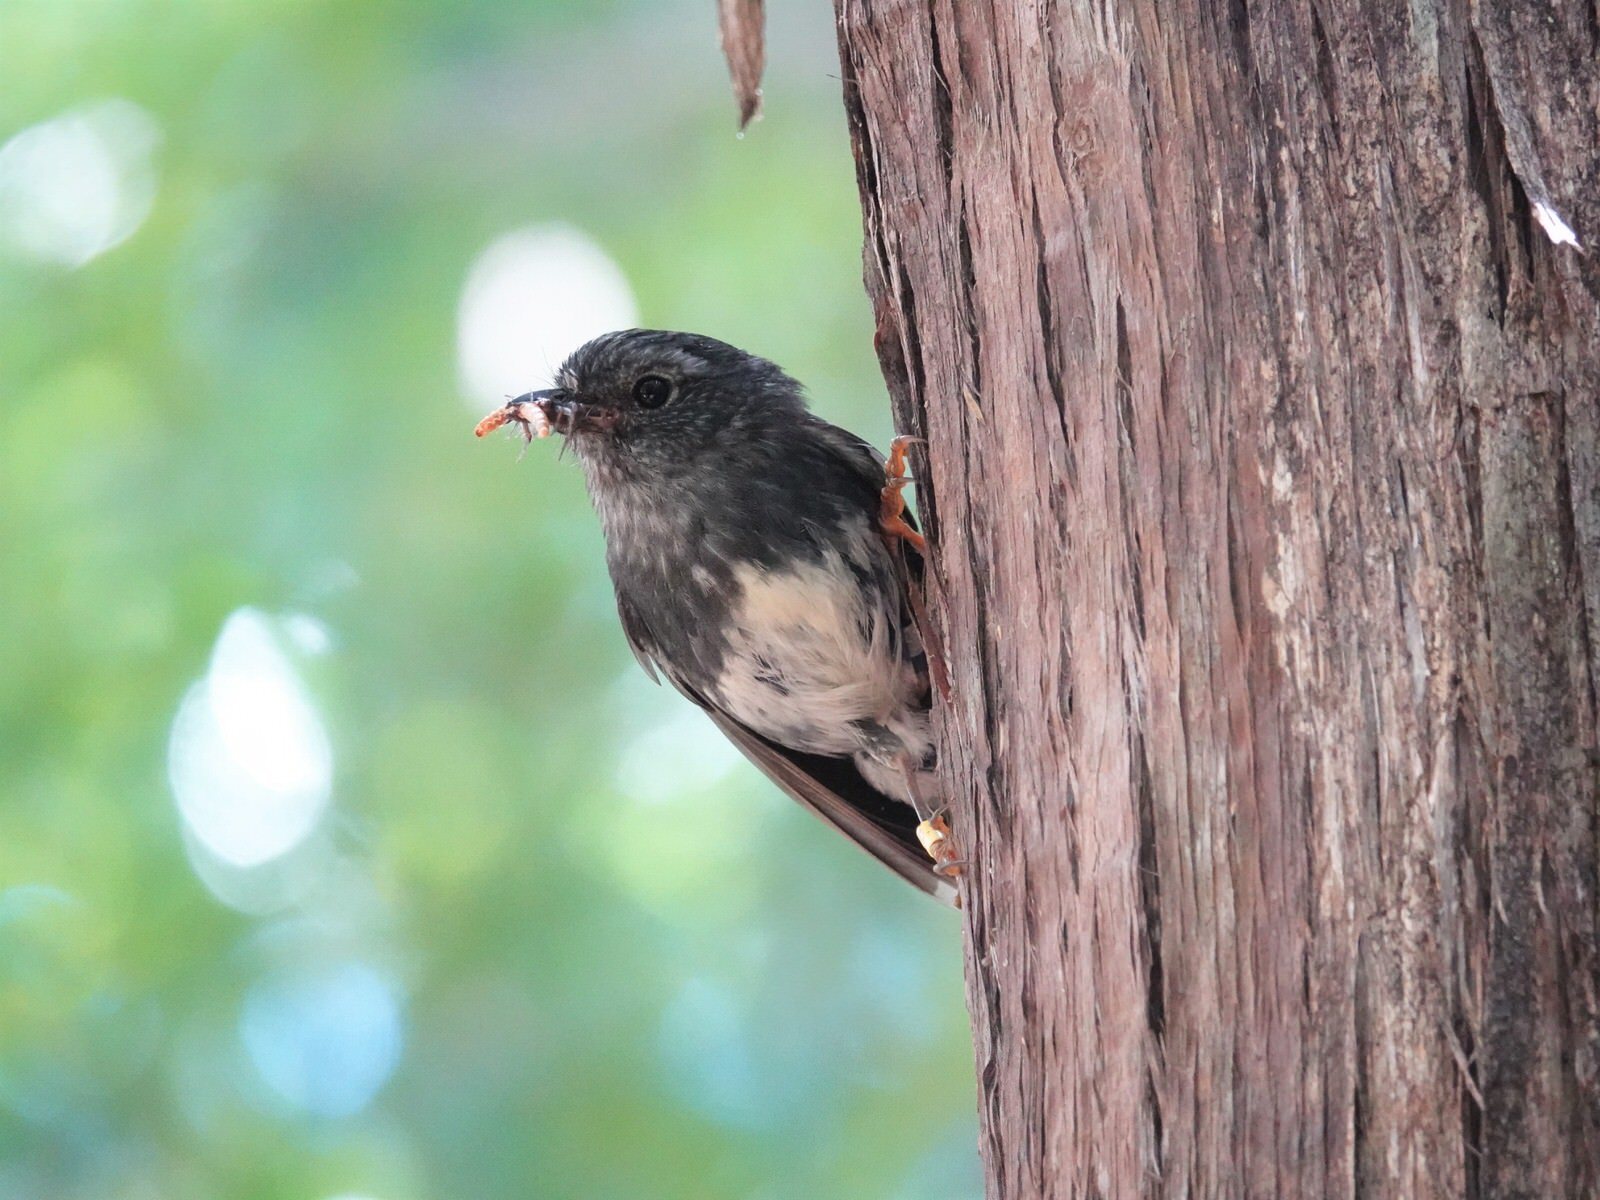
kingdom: Animalia
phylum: Chordata
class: Aves
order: Passeriformes
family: Petroicidae
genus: Petroica
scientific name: Petroica australis
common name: New zealand robin
